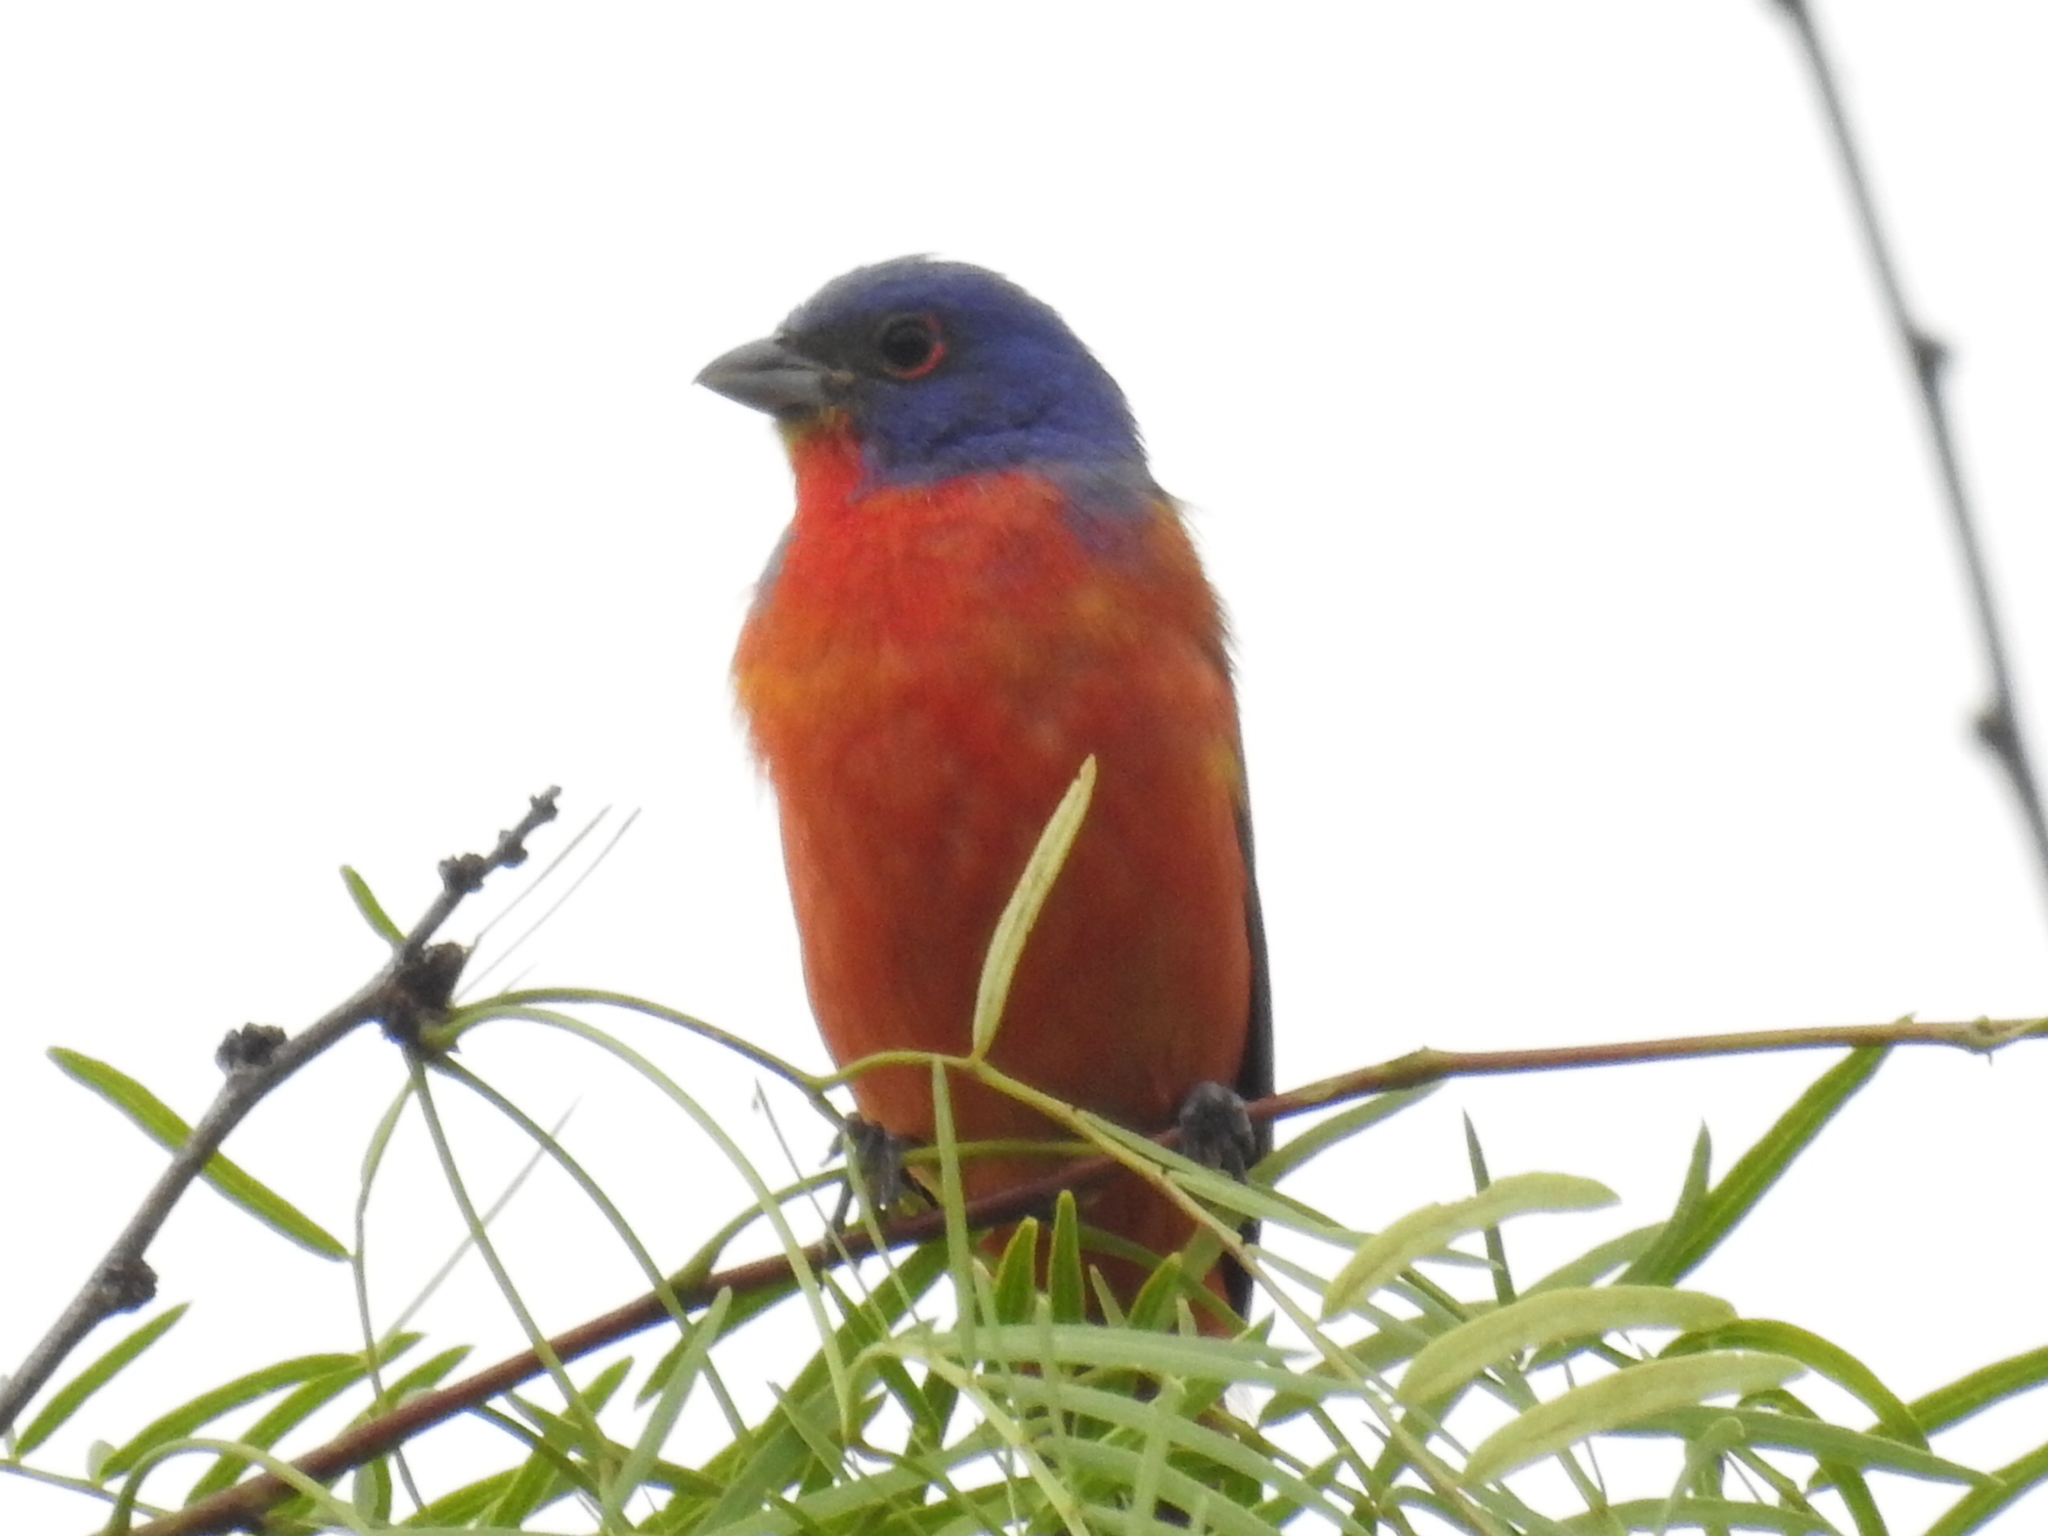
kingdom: Animalia
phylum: Chordata
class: Aves
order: Passeriformes
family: Cardinalidae
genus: Passerina
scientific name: Passerina ciris
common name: Painted bunting
